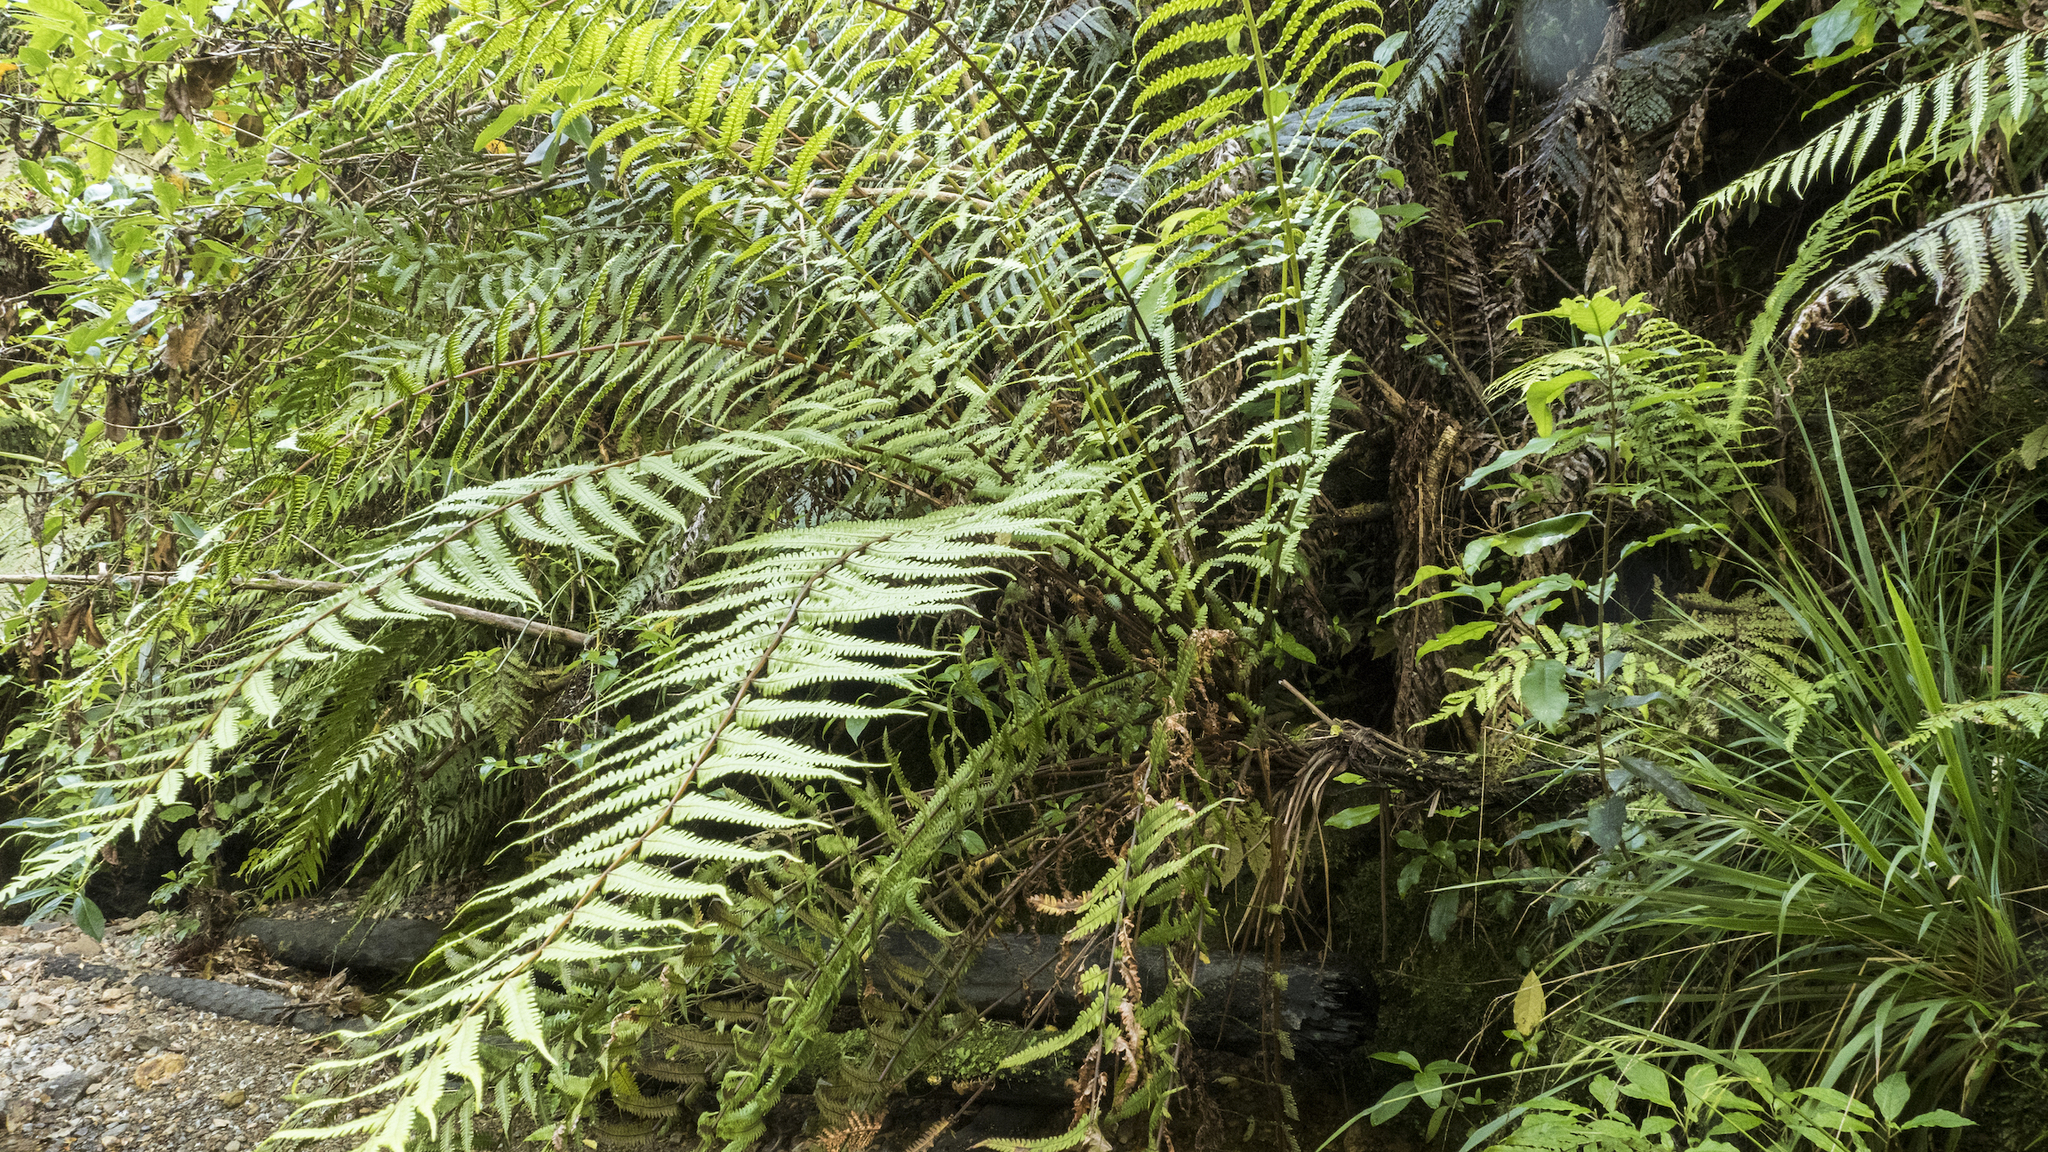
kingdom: Plantae
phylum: Tracheophyta
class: Polypodiopsida
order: Polypodiales
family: Thelypteridaceae
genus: Pakau
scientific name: Pakau pennigera
